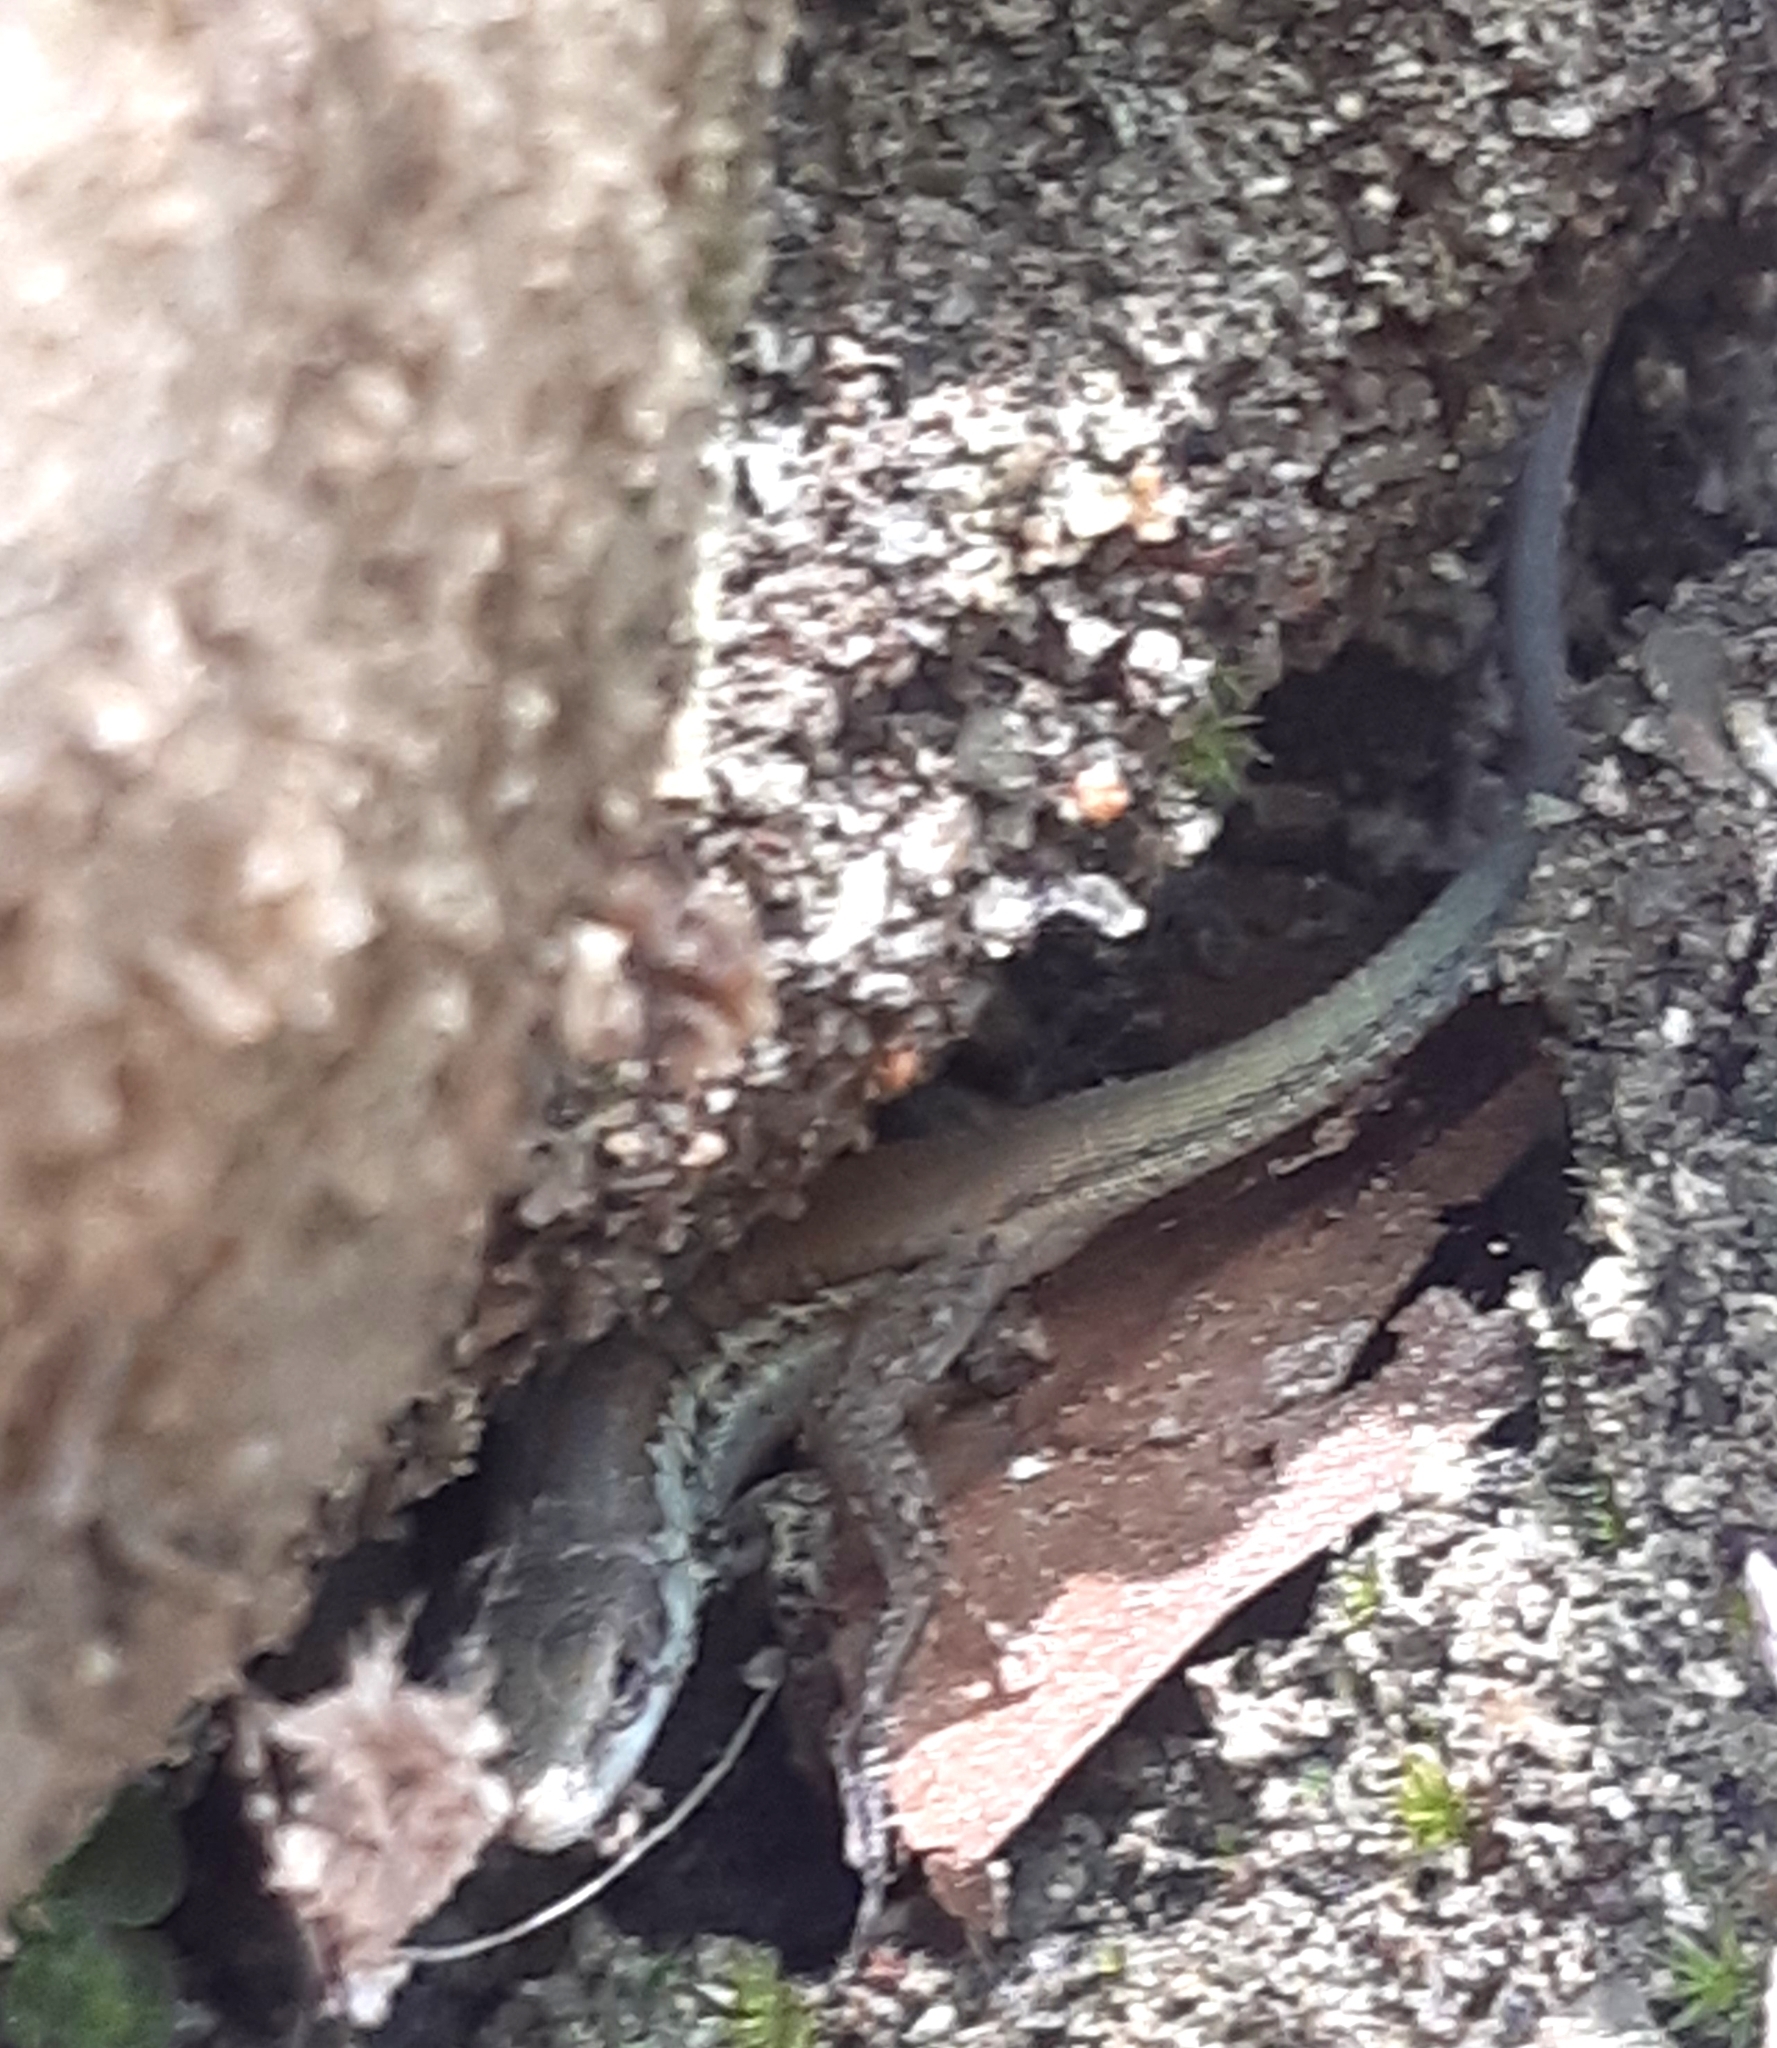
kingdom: Animalia
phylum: Chordata
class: Squamata
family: Lacertidae
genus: Phoenicolacerta
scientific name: Phoenicolacerta troodica
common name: Troodos wall lizard
